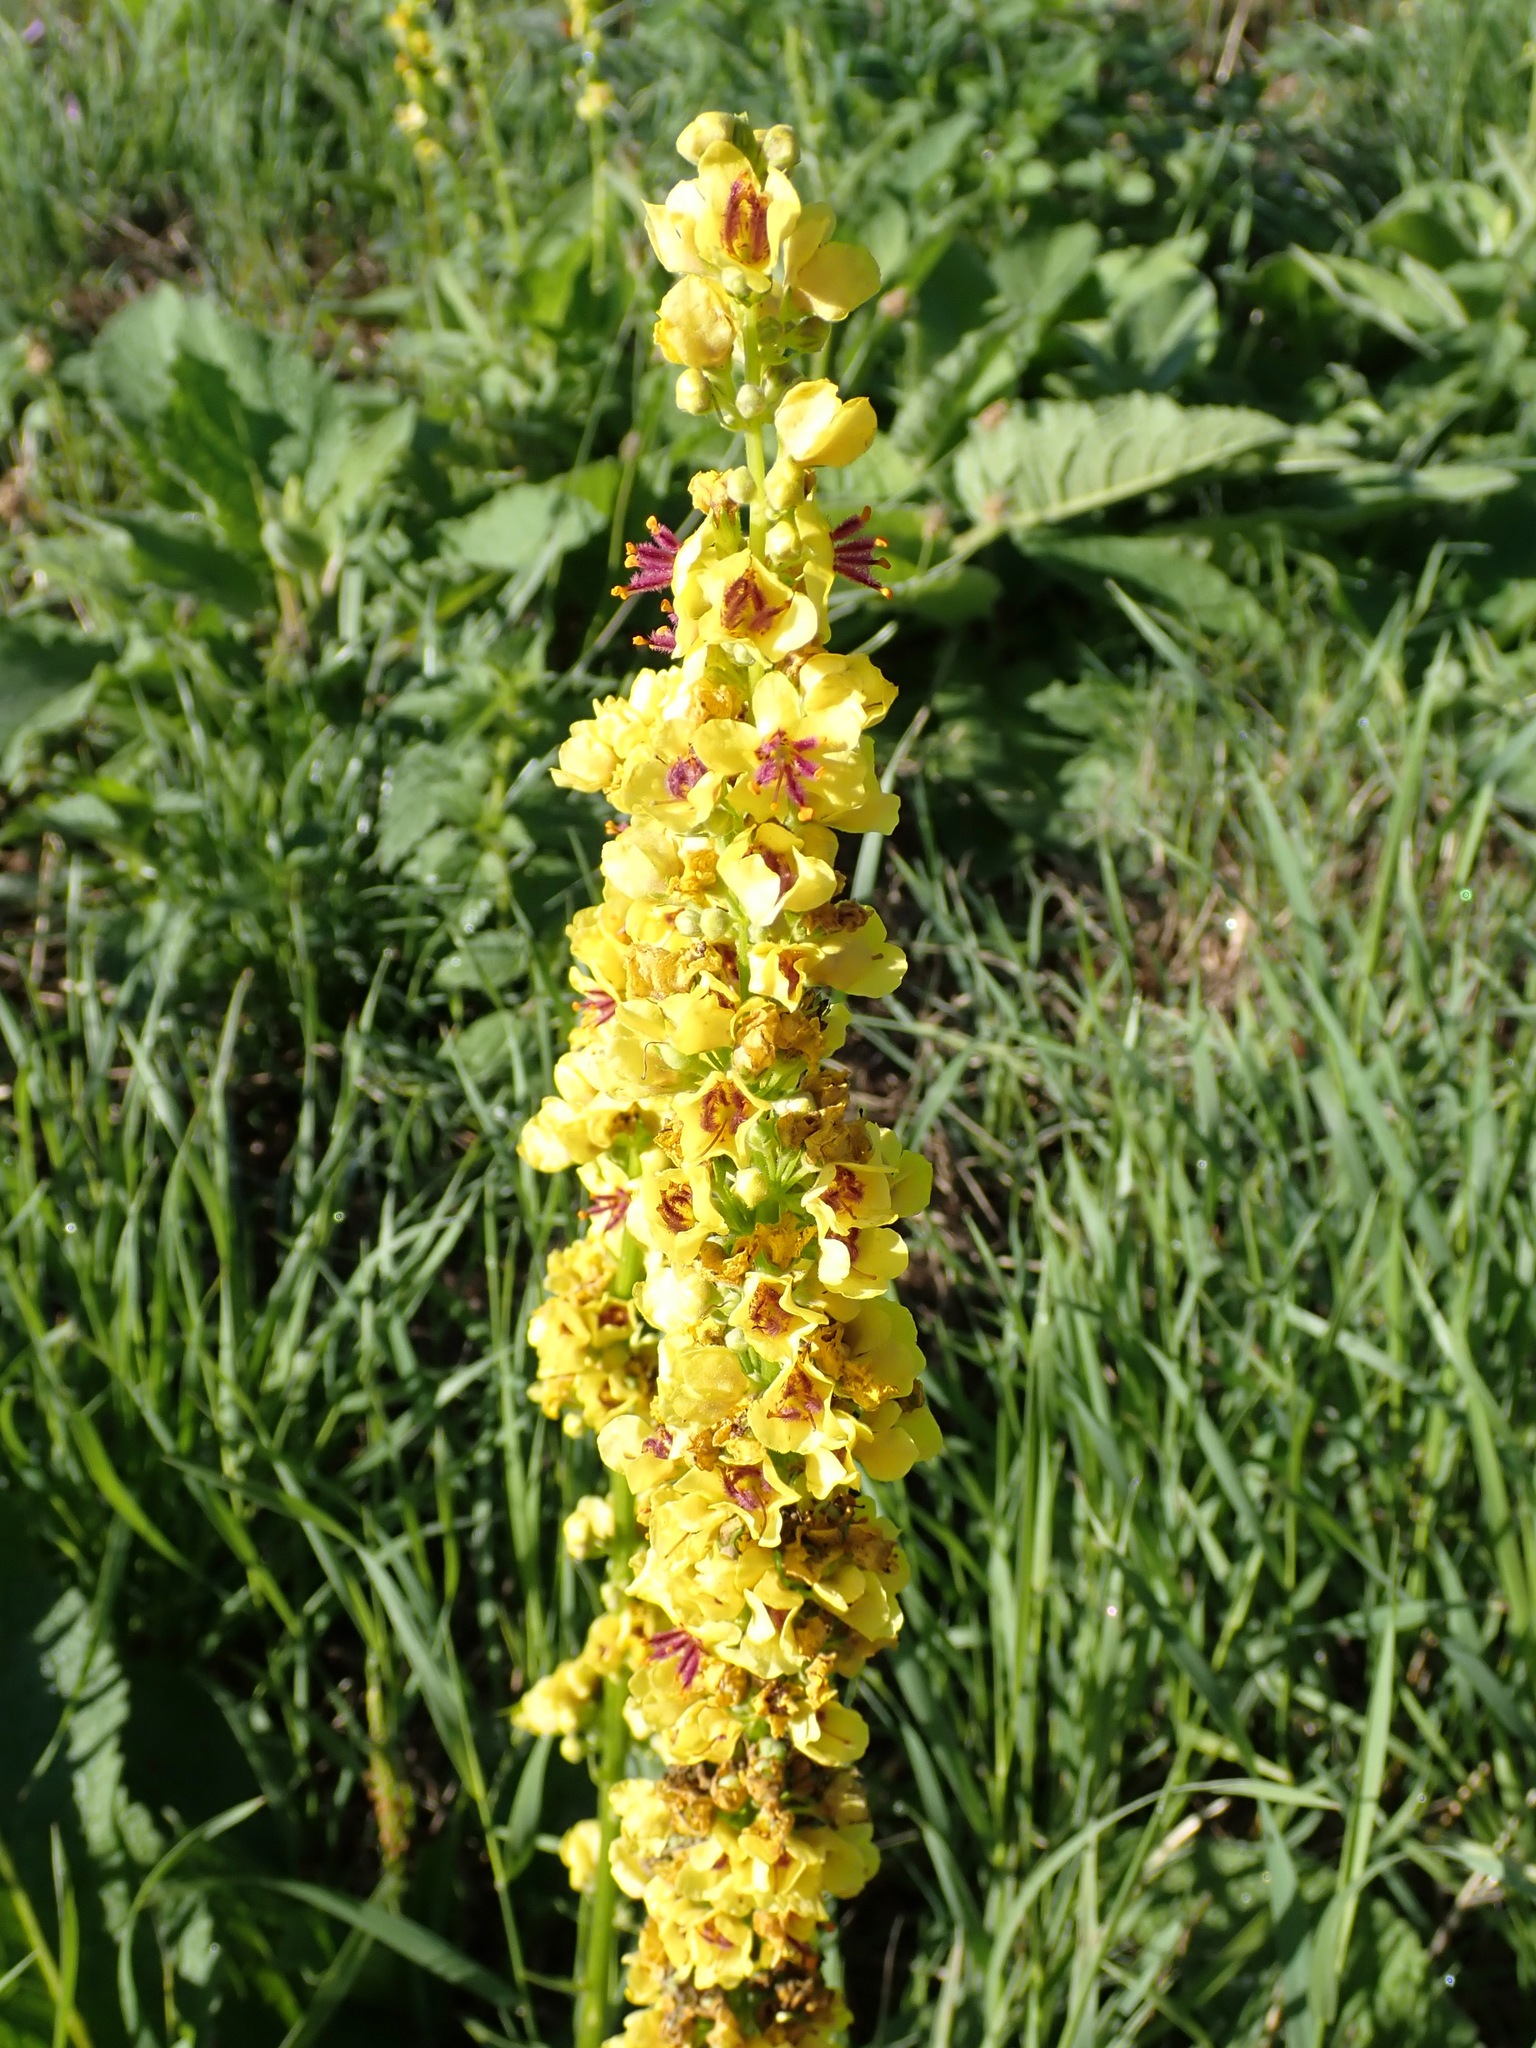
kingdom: Plantae
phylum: Tracheophyta
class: Magnoliopsida
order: Lamiales
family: Scrophulariaceae
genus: Verbascum
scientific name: Verbascum nigrum
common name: Dark mullein
